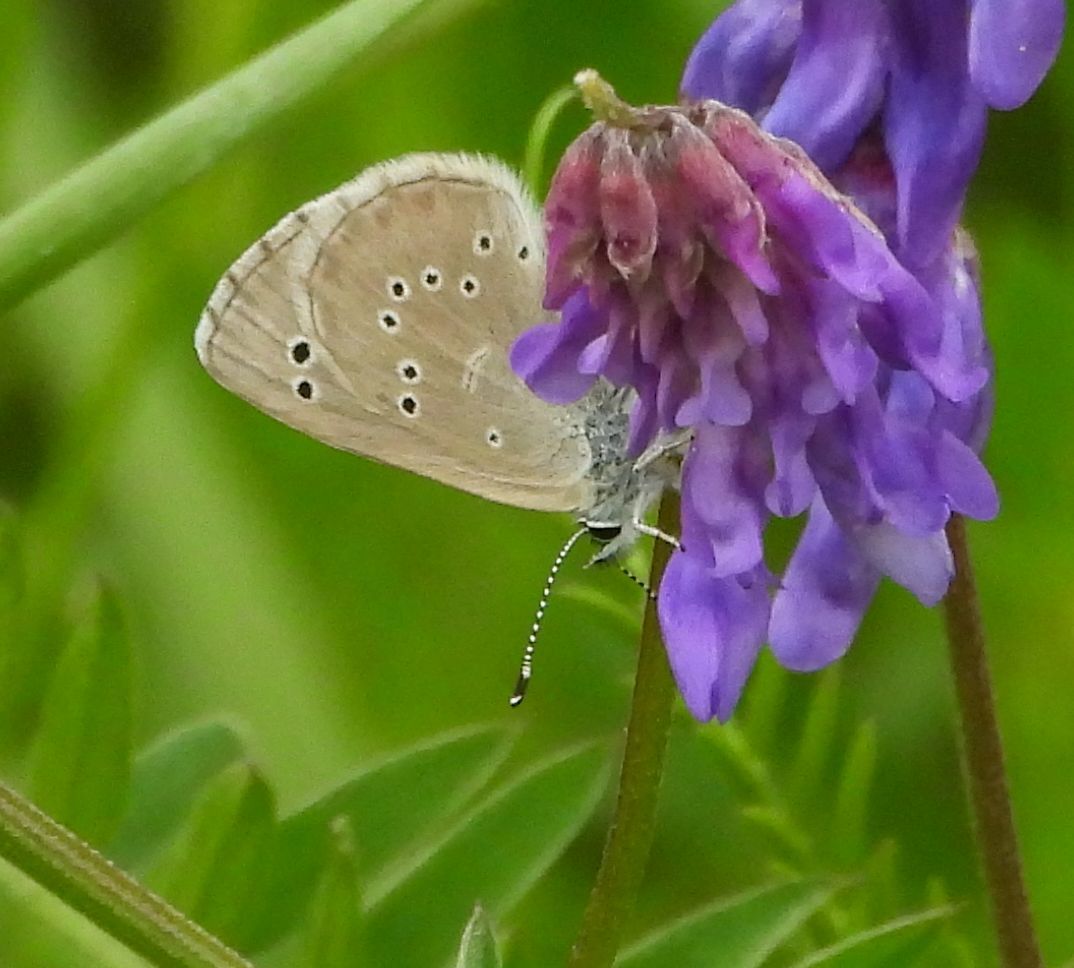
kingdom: Animalia
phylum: Arthropoda
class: Insecta
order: Lepidoptera
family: Lycaenidae
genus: Glaucopsyche
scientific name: Glaucopsyche lygdamus
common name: Silvery blue
